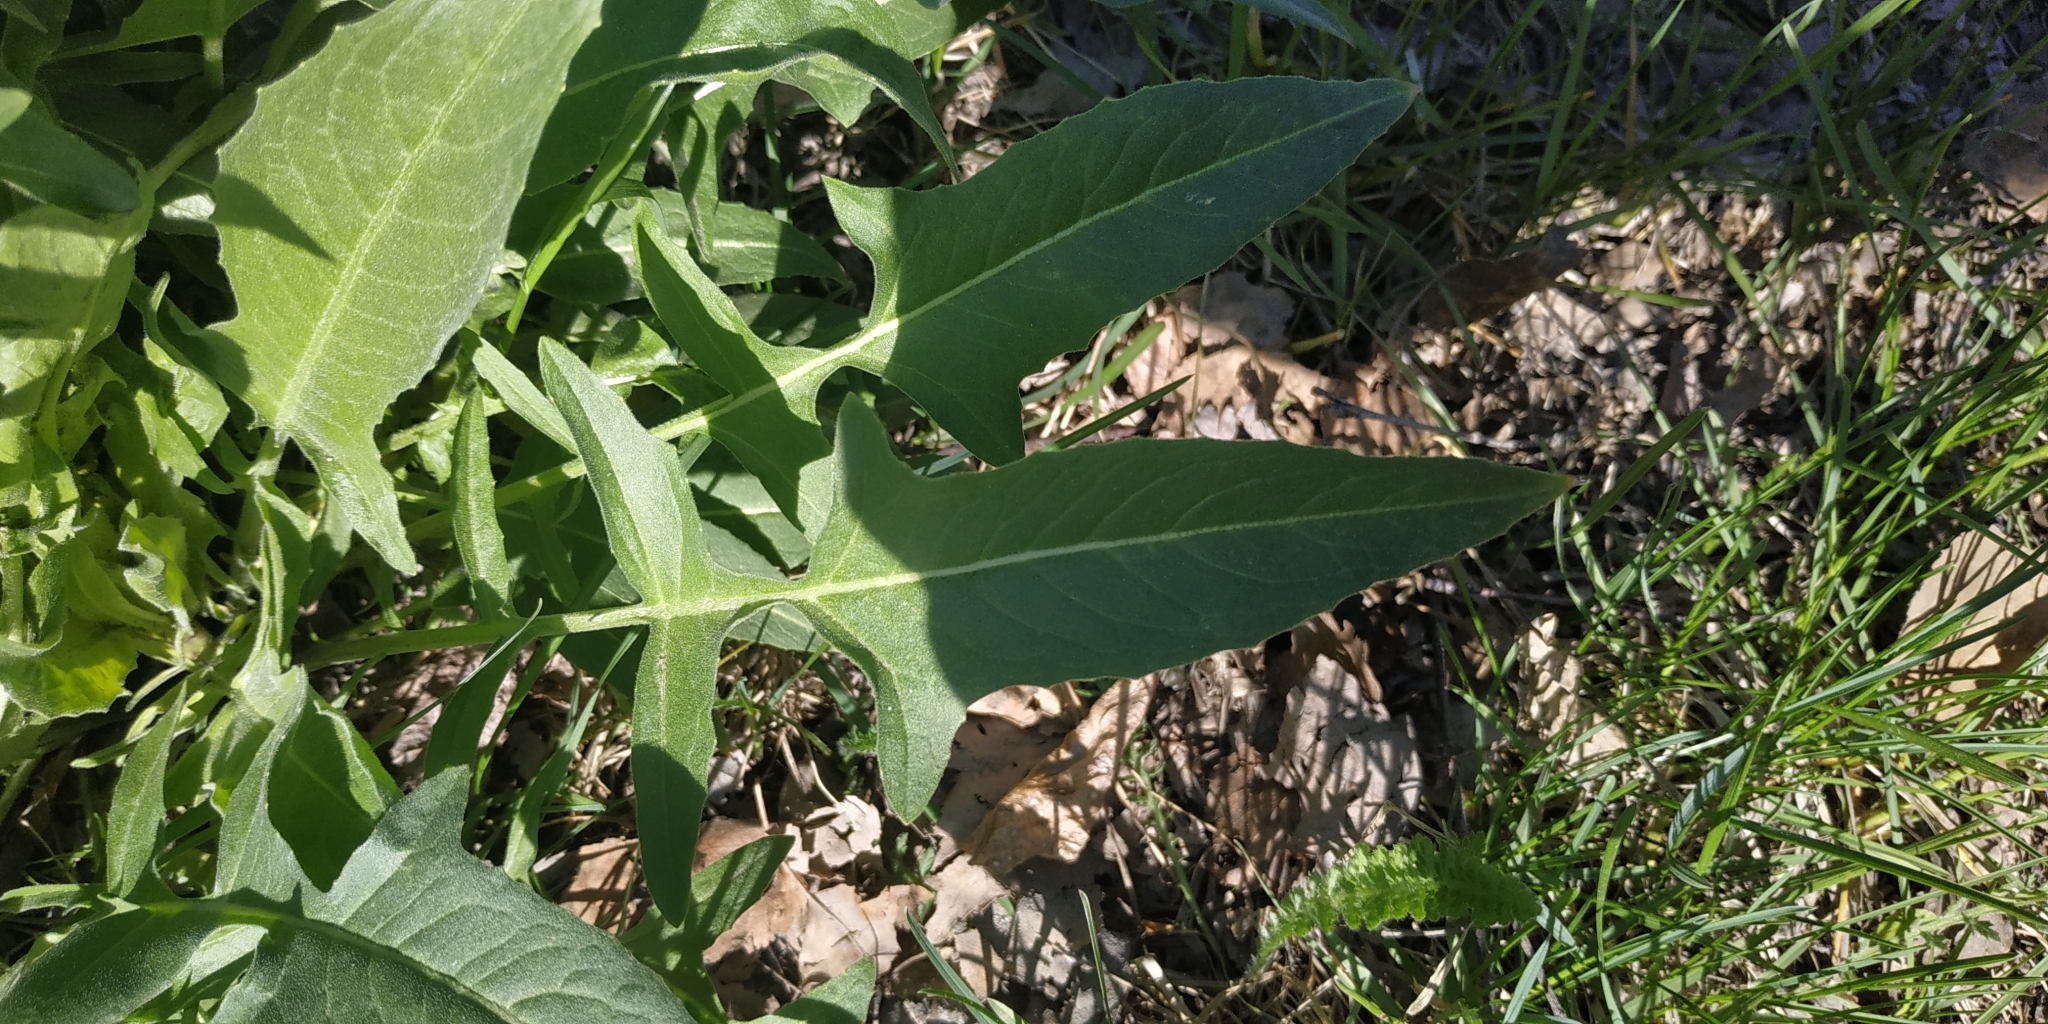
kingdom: Plantae
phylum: Tracheophyta
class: Magnoliopsida
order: Brassicales
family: Brassicaceae
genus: Bunias
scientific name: Bunias orientalis
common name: Warty-cabbage
